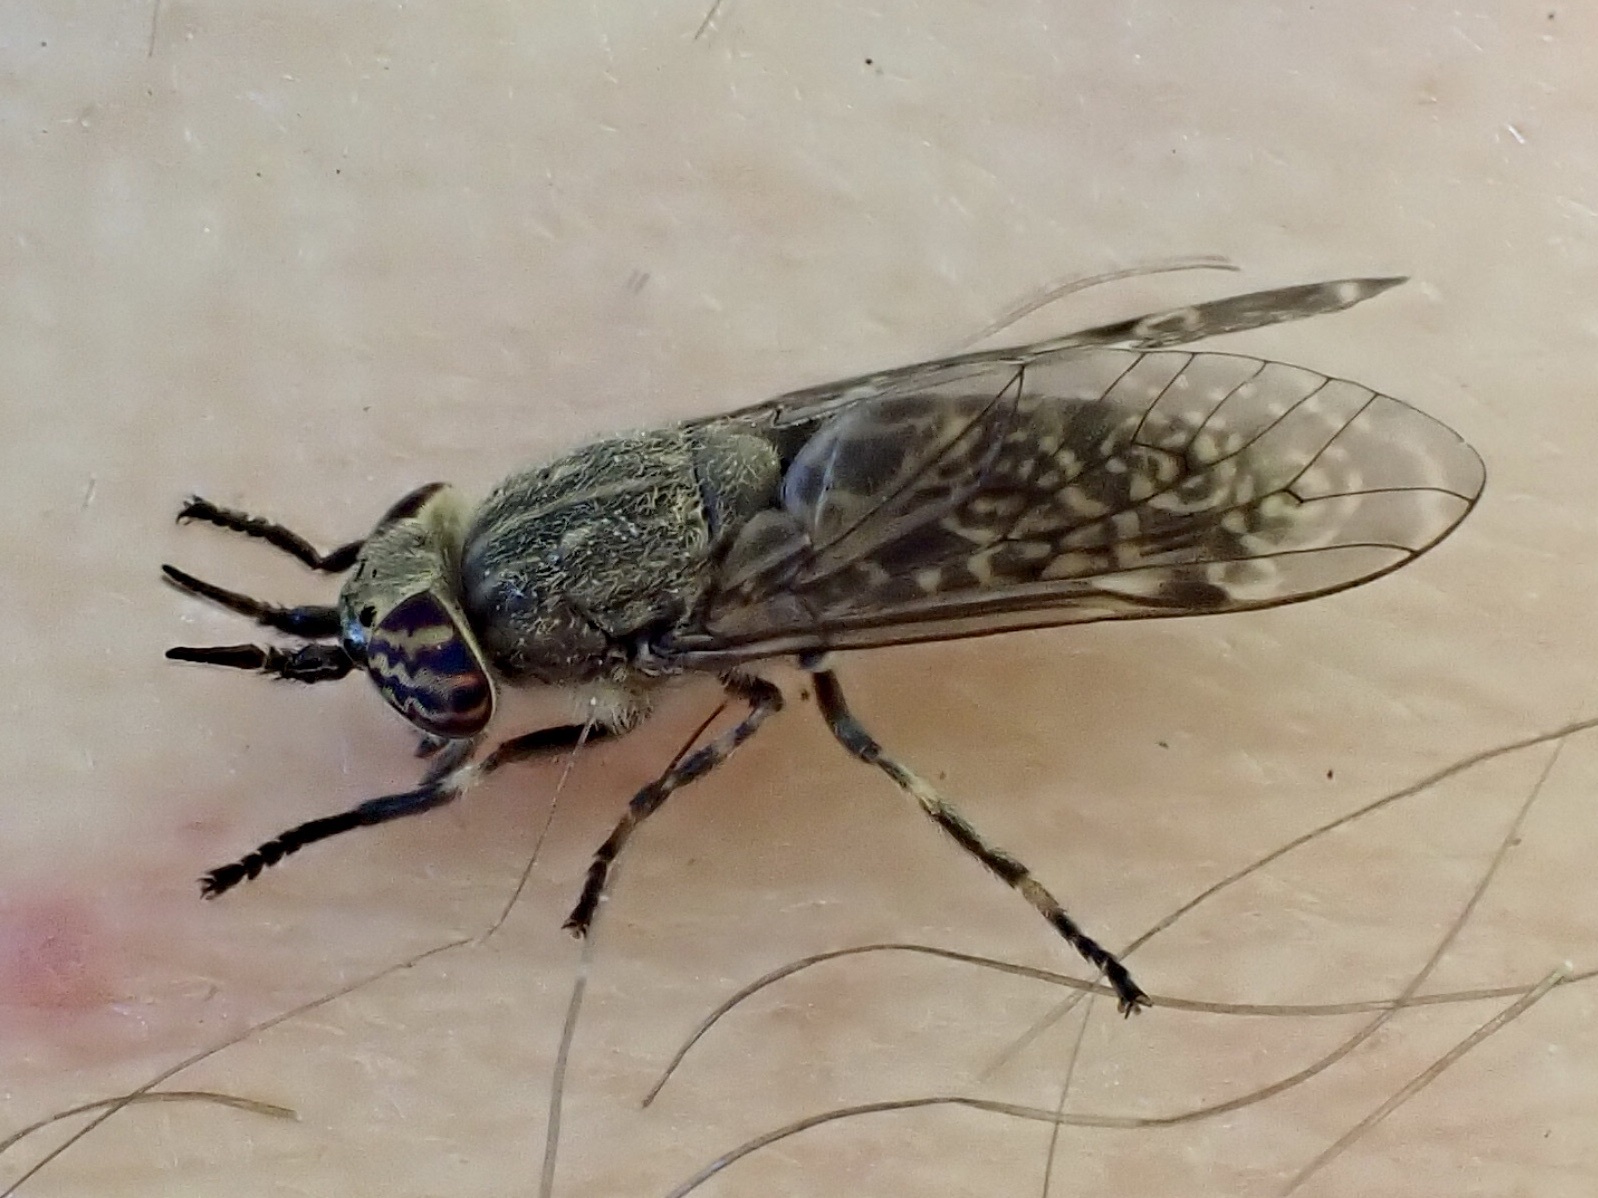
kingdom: Animalia
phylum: Arthropoda
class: Insecta
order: Diptera
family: Tabanidae
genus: Haematopota
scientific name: Haematopota pluvialis
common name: Common horse fly
